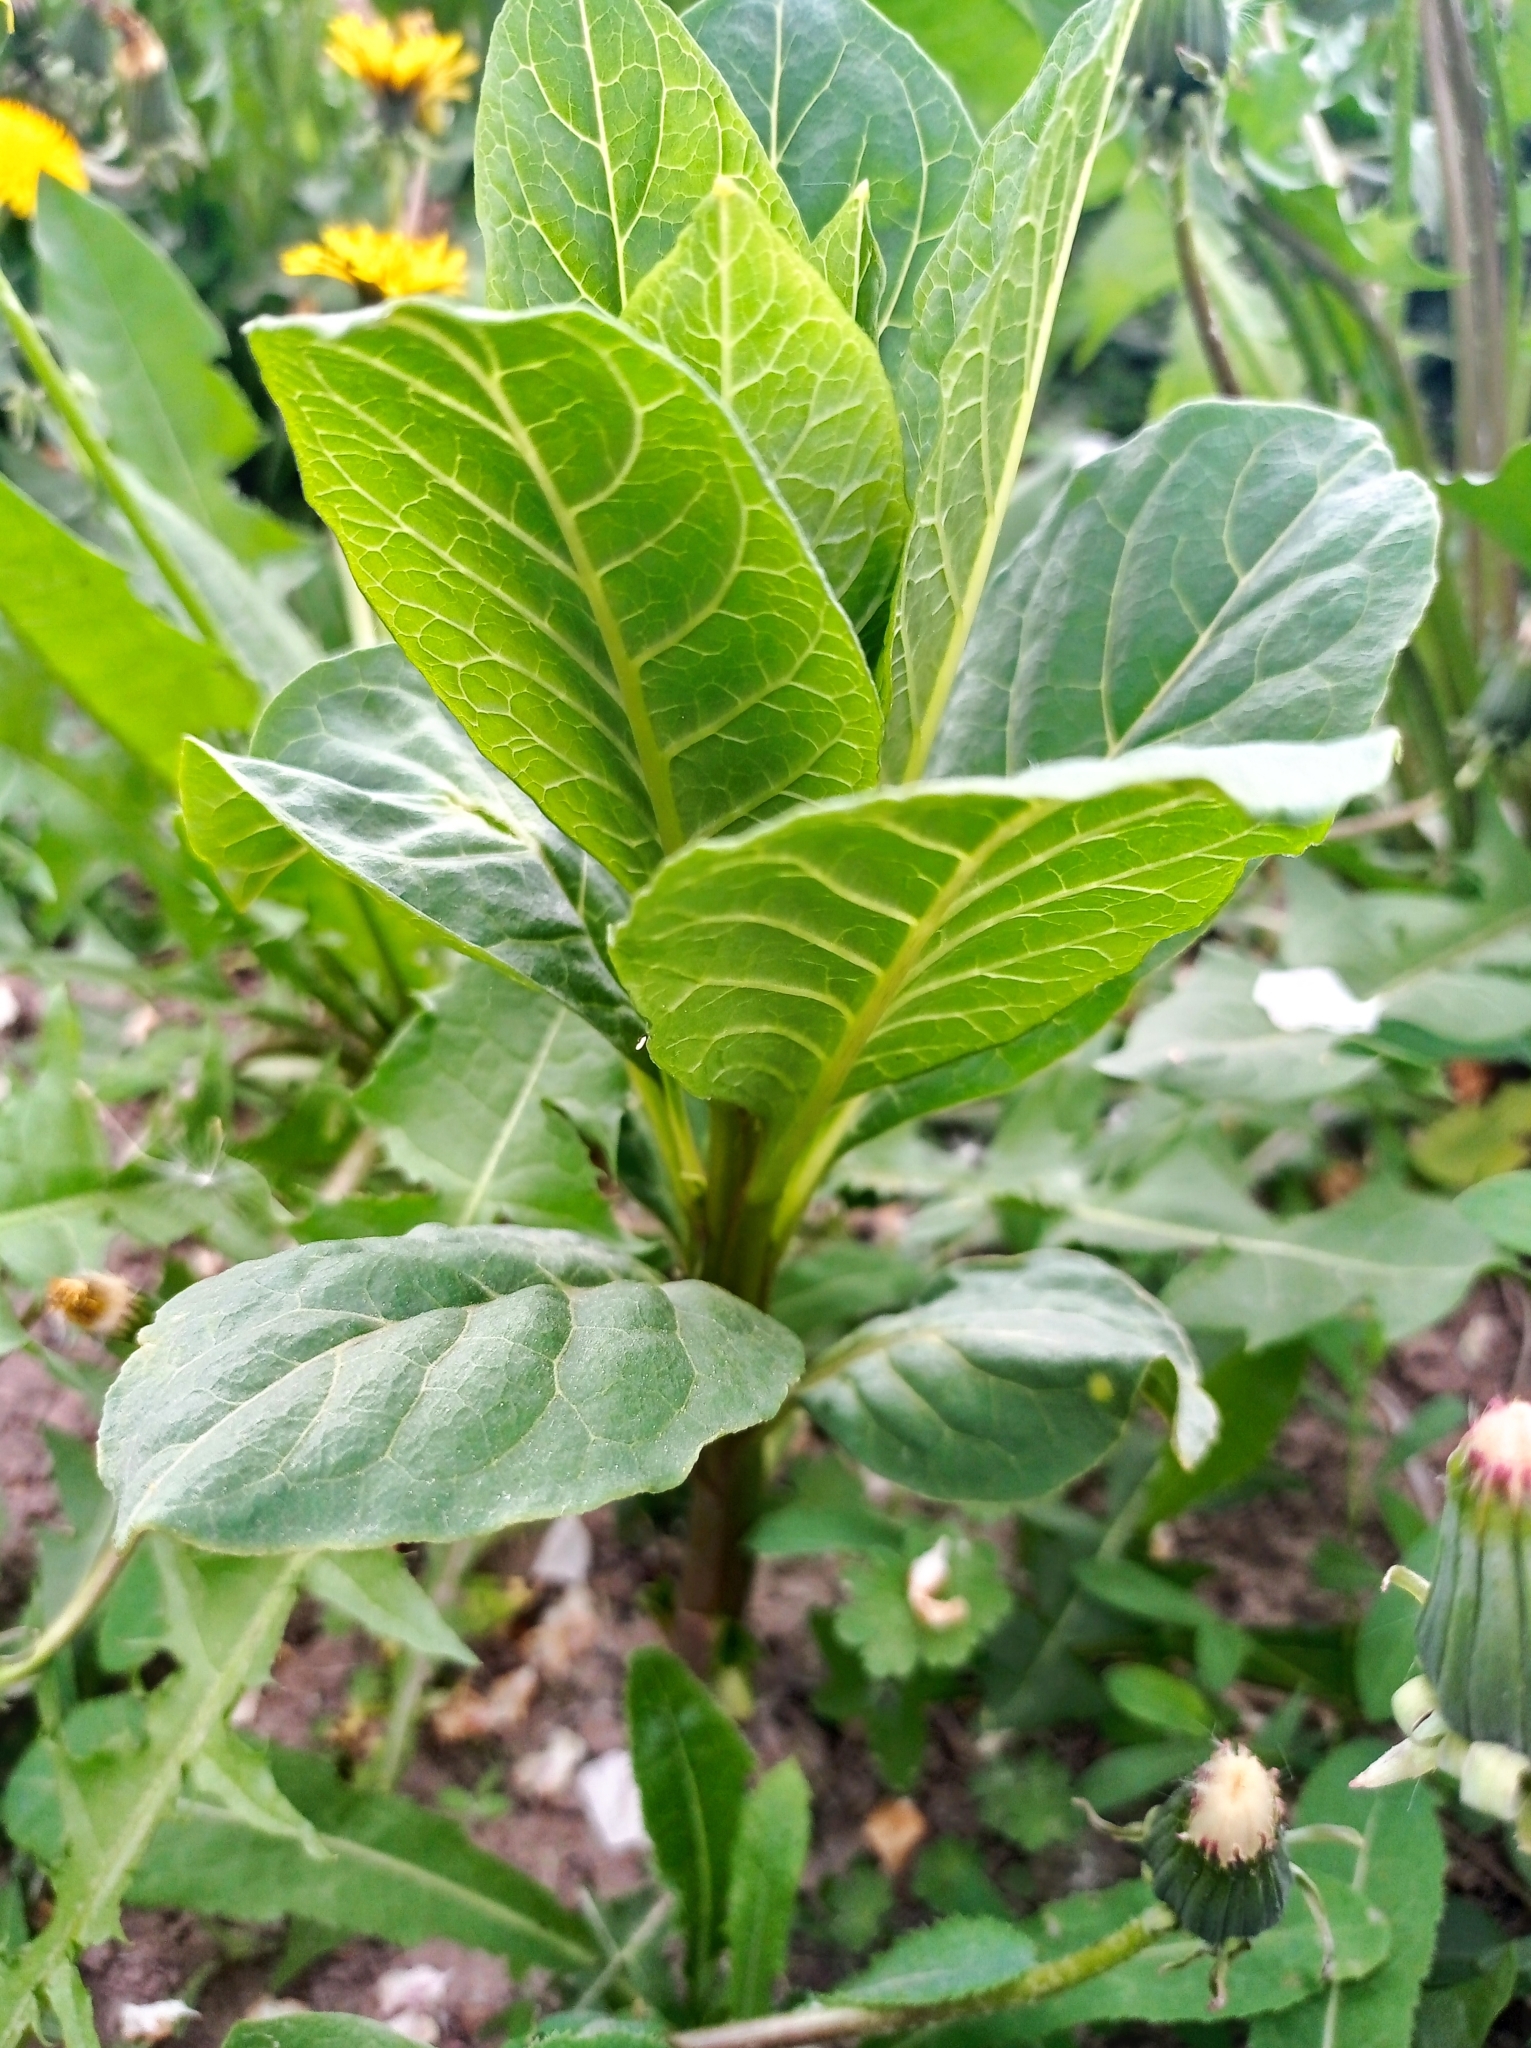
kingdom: Plantae
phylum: Tracheophyta
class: Magnoliopsida
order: Caryophyllales
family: Phytolaccaceae
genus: Phytolacca
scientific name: Phytolacca acinosa
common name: Indian pokeweed
